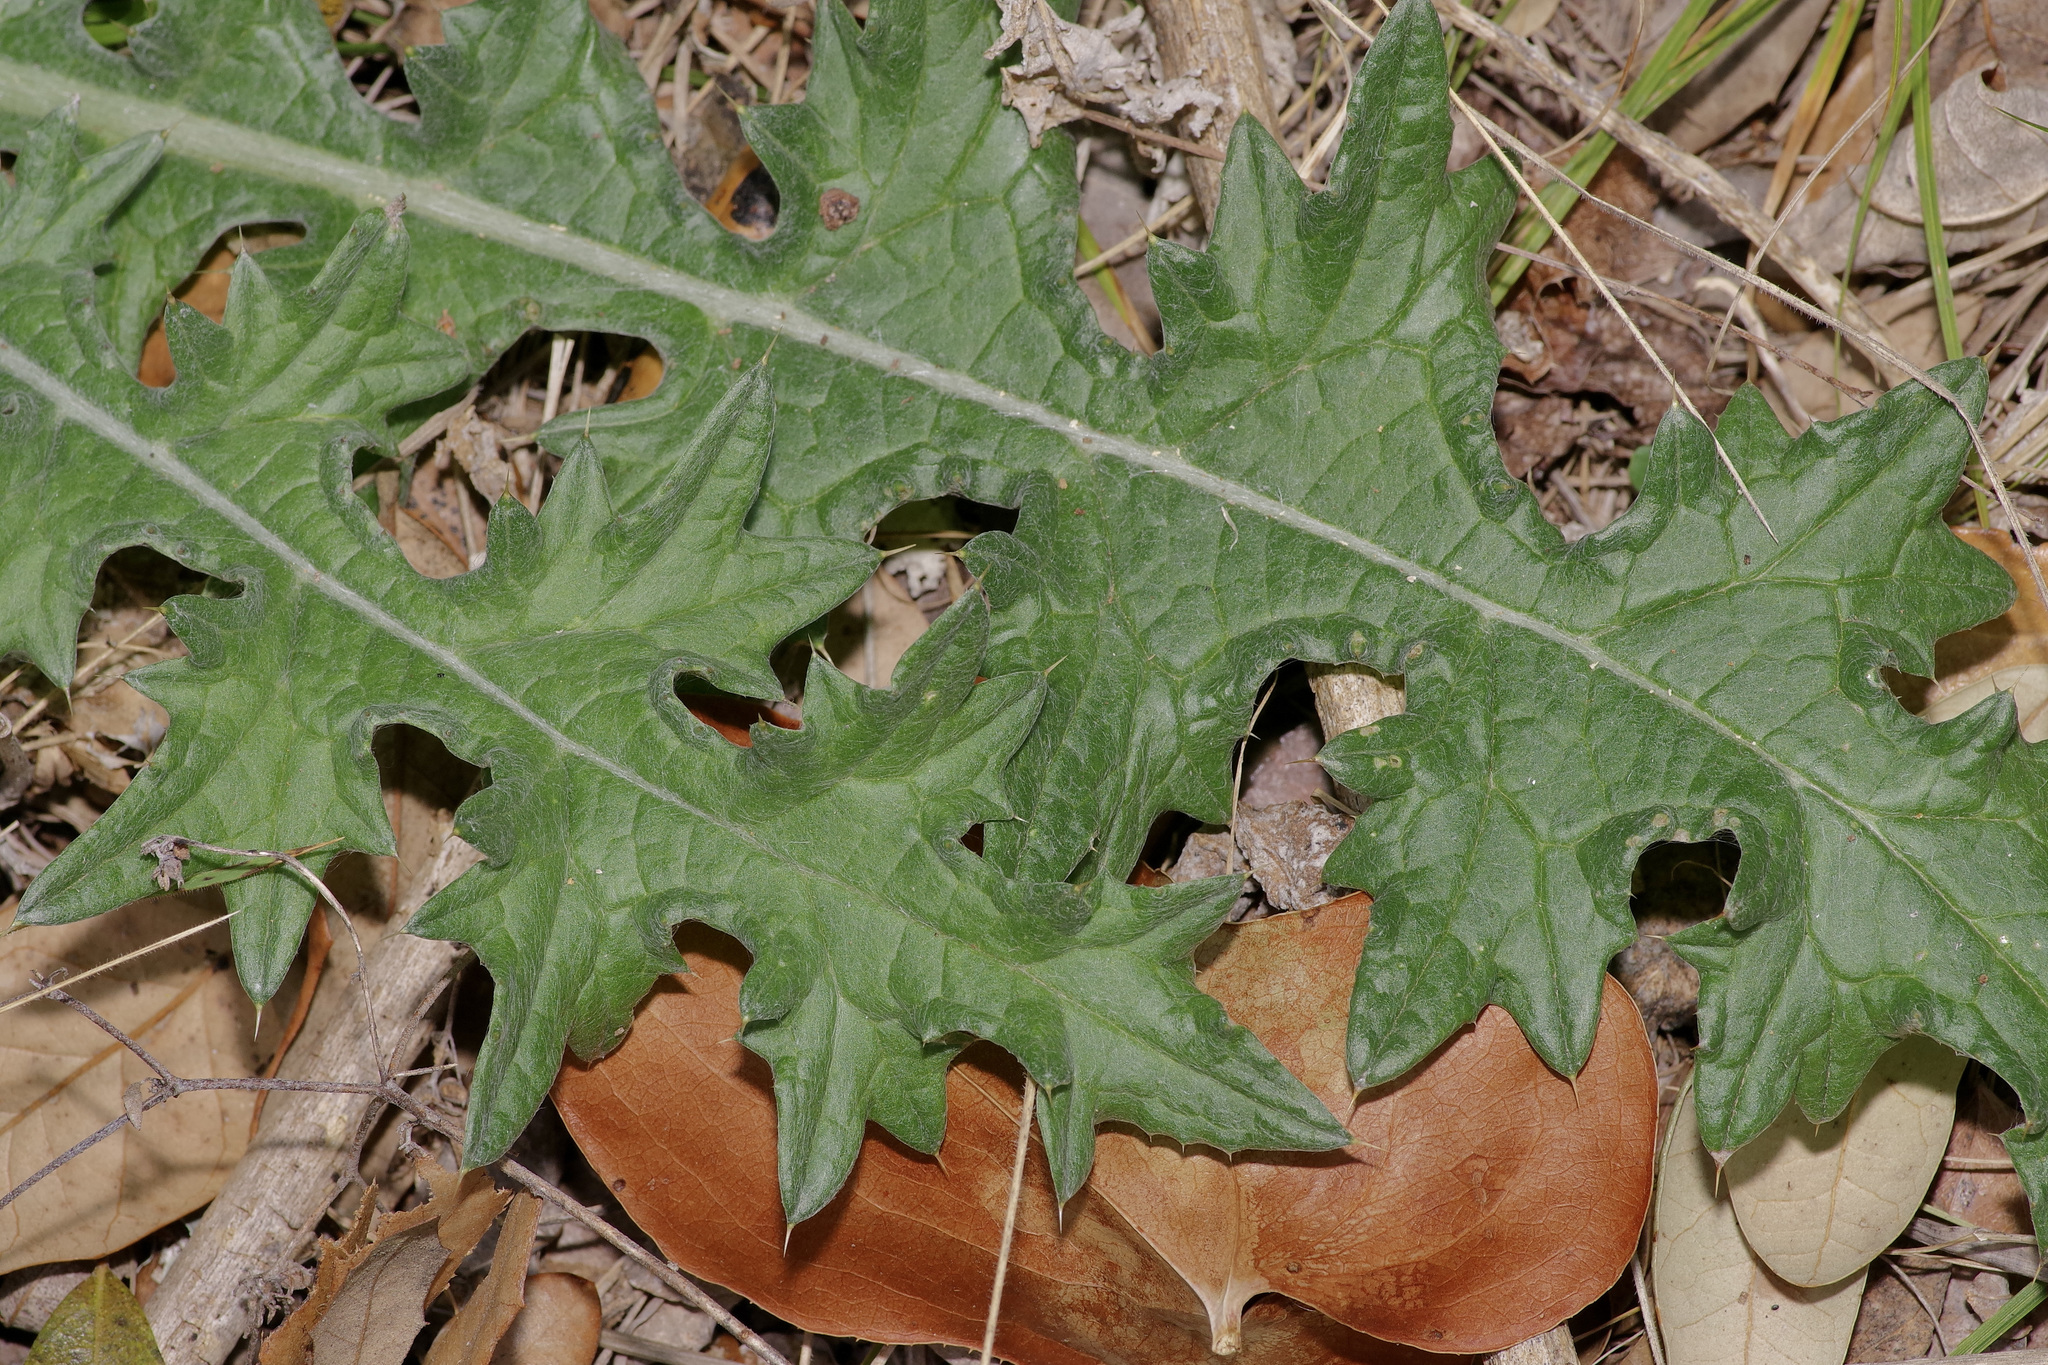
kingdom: Plantae
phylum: Tracheophyta
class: Magnoliopsida
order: Asterales
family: Asteraceae
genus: Cirsium
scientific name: Cirsium texanum
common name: Texas purple thistle
